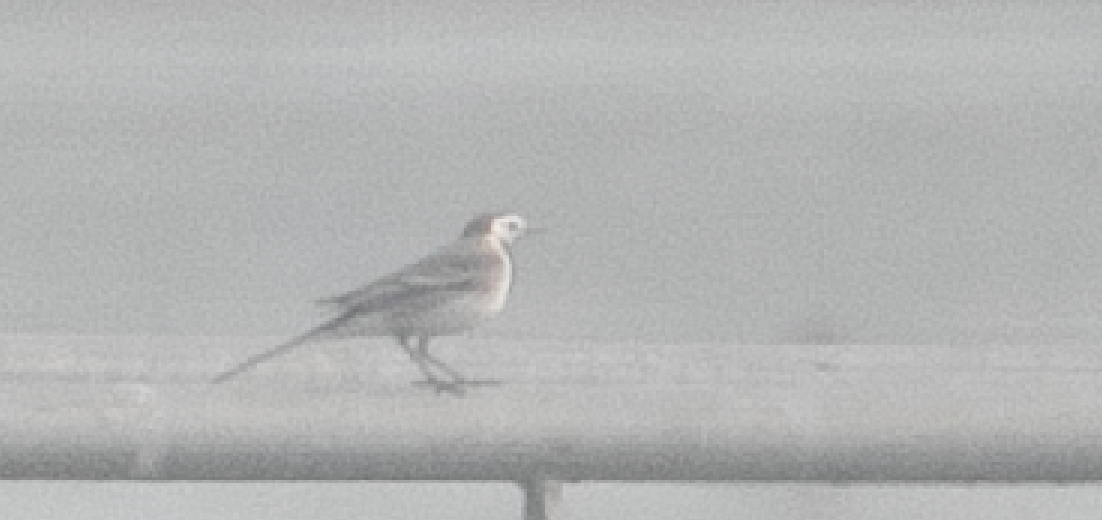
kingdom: Animalia
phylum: Chordata
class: Aves
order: Passeriformes
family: Motacillidae
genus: Motacilla
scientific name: Motacilla alba
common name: White wagtail
